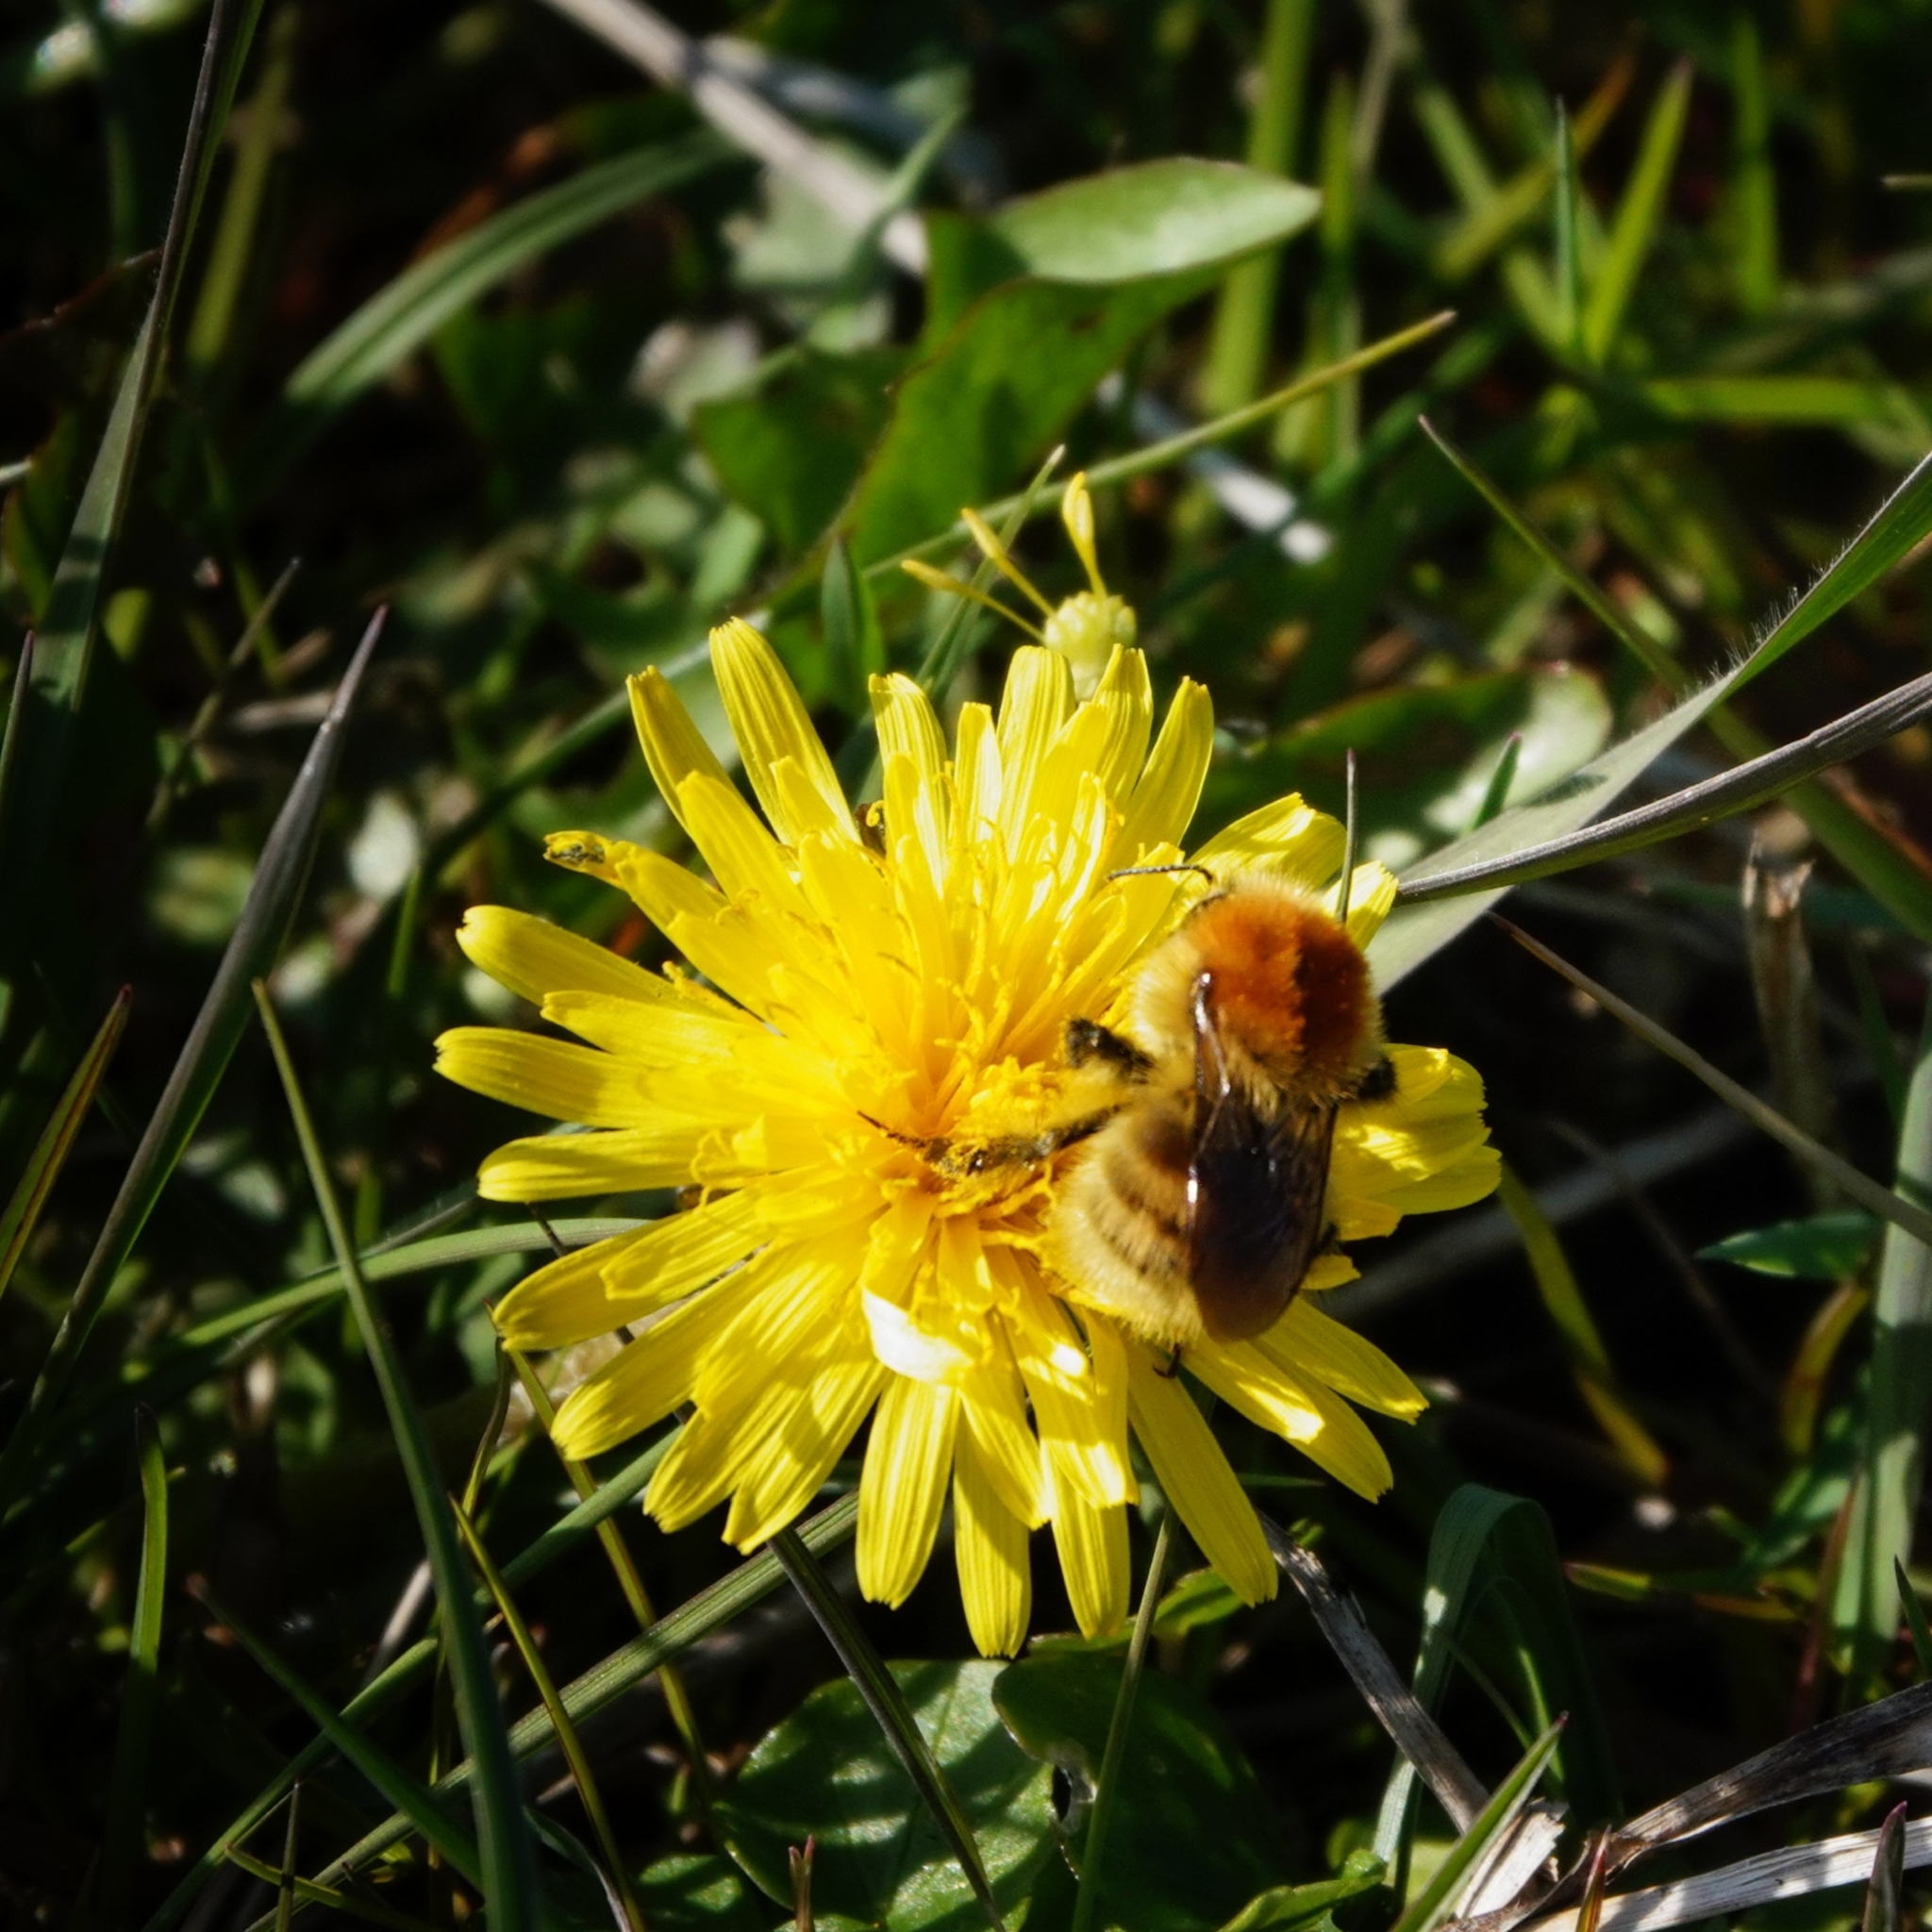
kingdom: Animalia
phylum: Arthropoda
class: Insecta
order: Hymenoptera
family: Apidae
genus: Bombus
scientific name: Bombus muscorum
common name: Moss carder-bee
